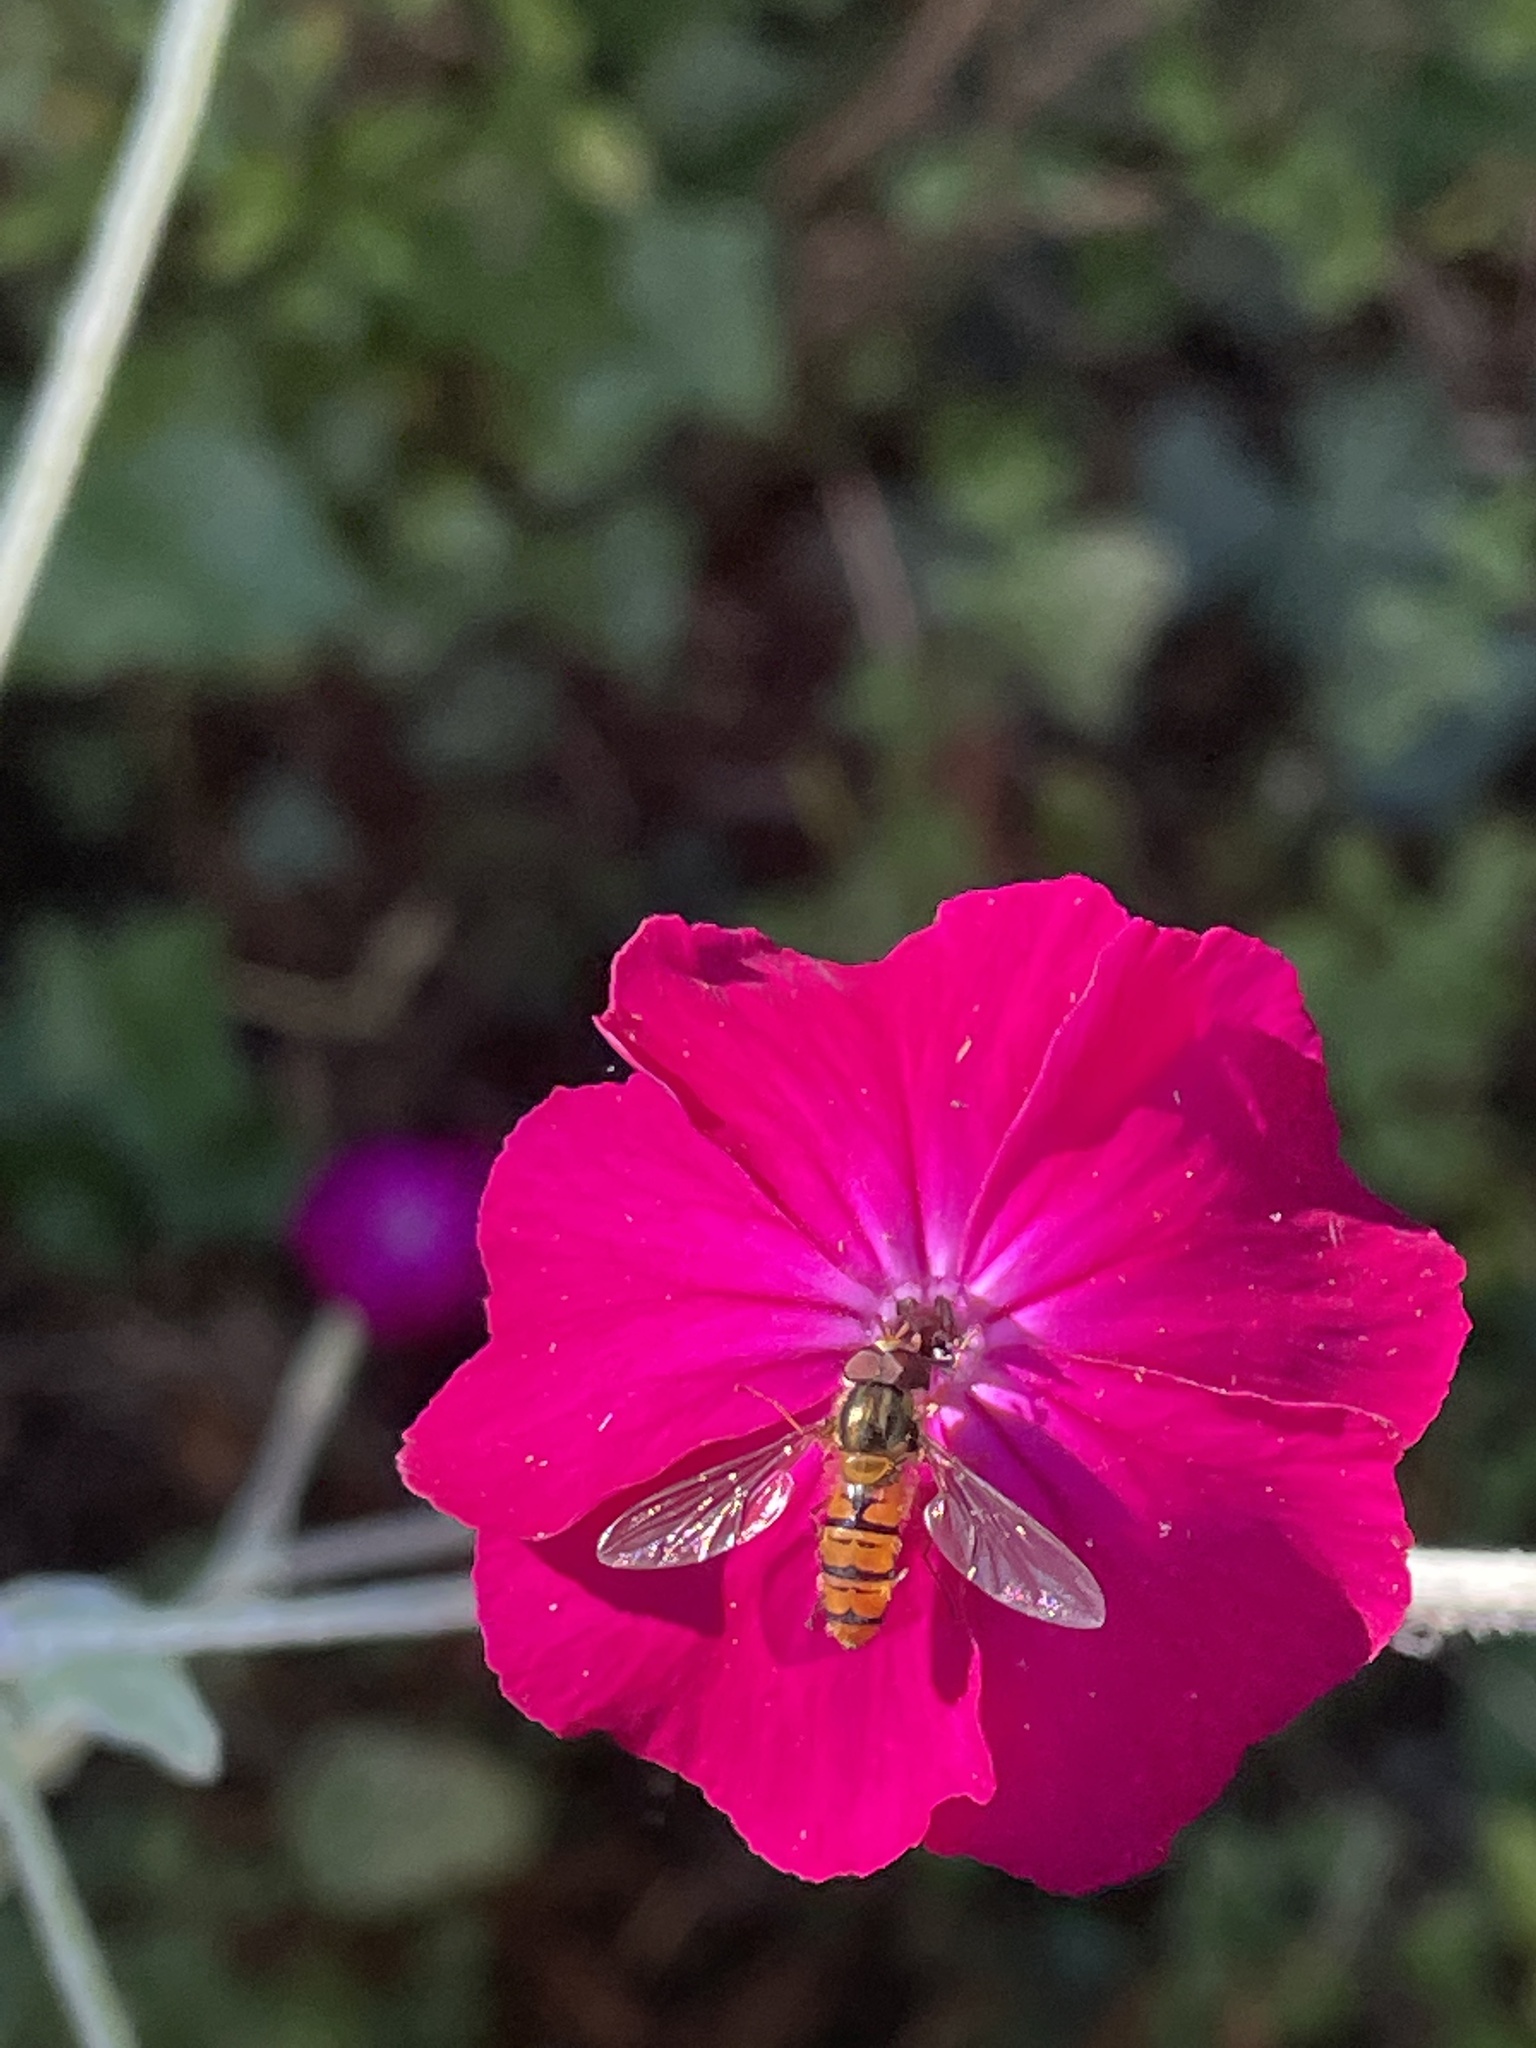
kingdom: Animalia
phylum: Arthropoda
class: Insecta
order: Diptera
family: Syrphidae
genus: Episyrphus
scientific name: Episyrphus balteatus
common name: Marmalade hoverfly
